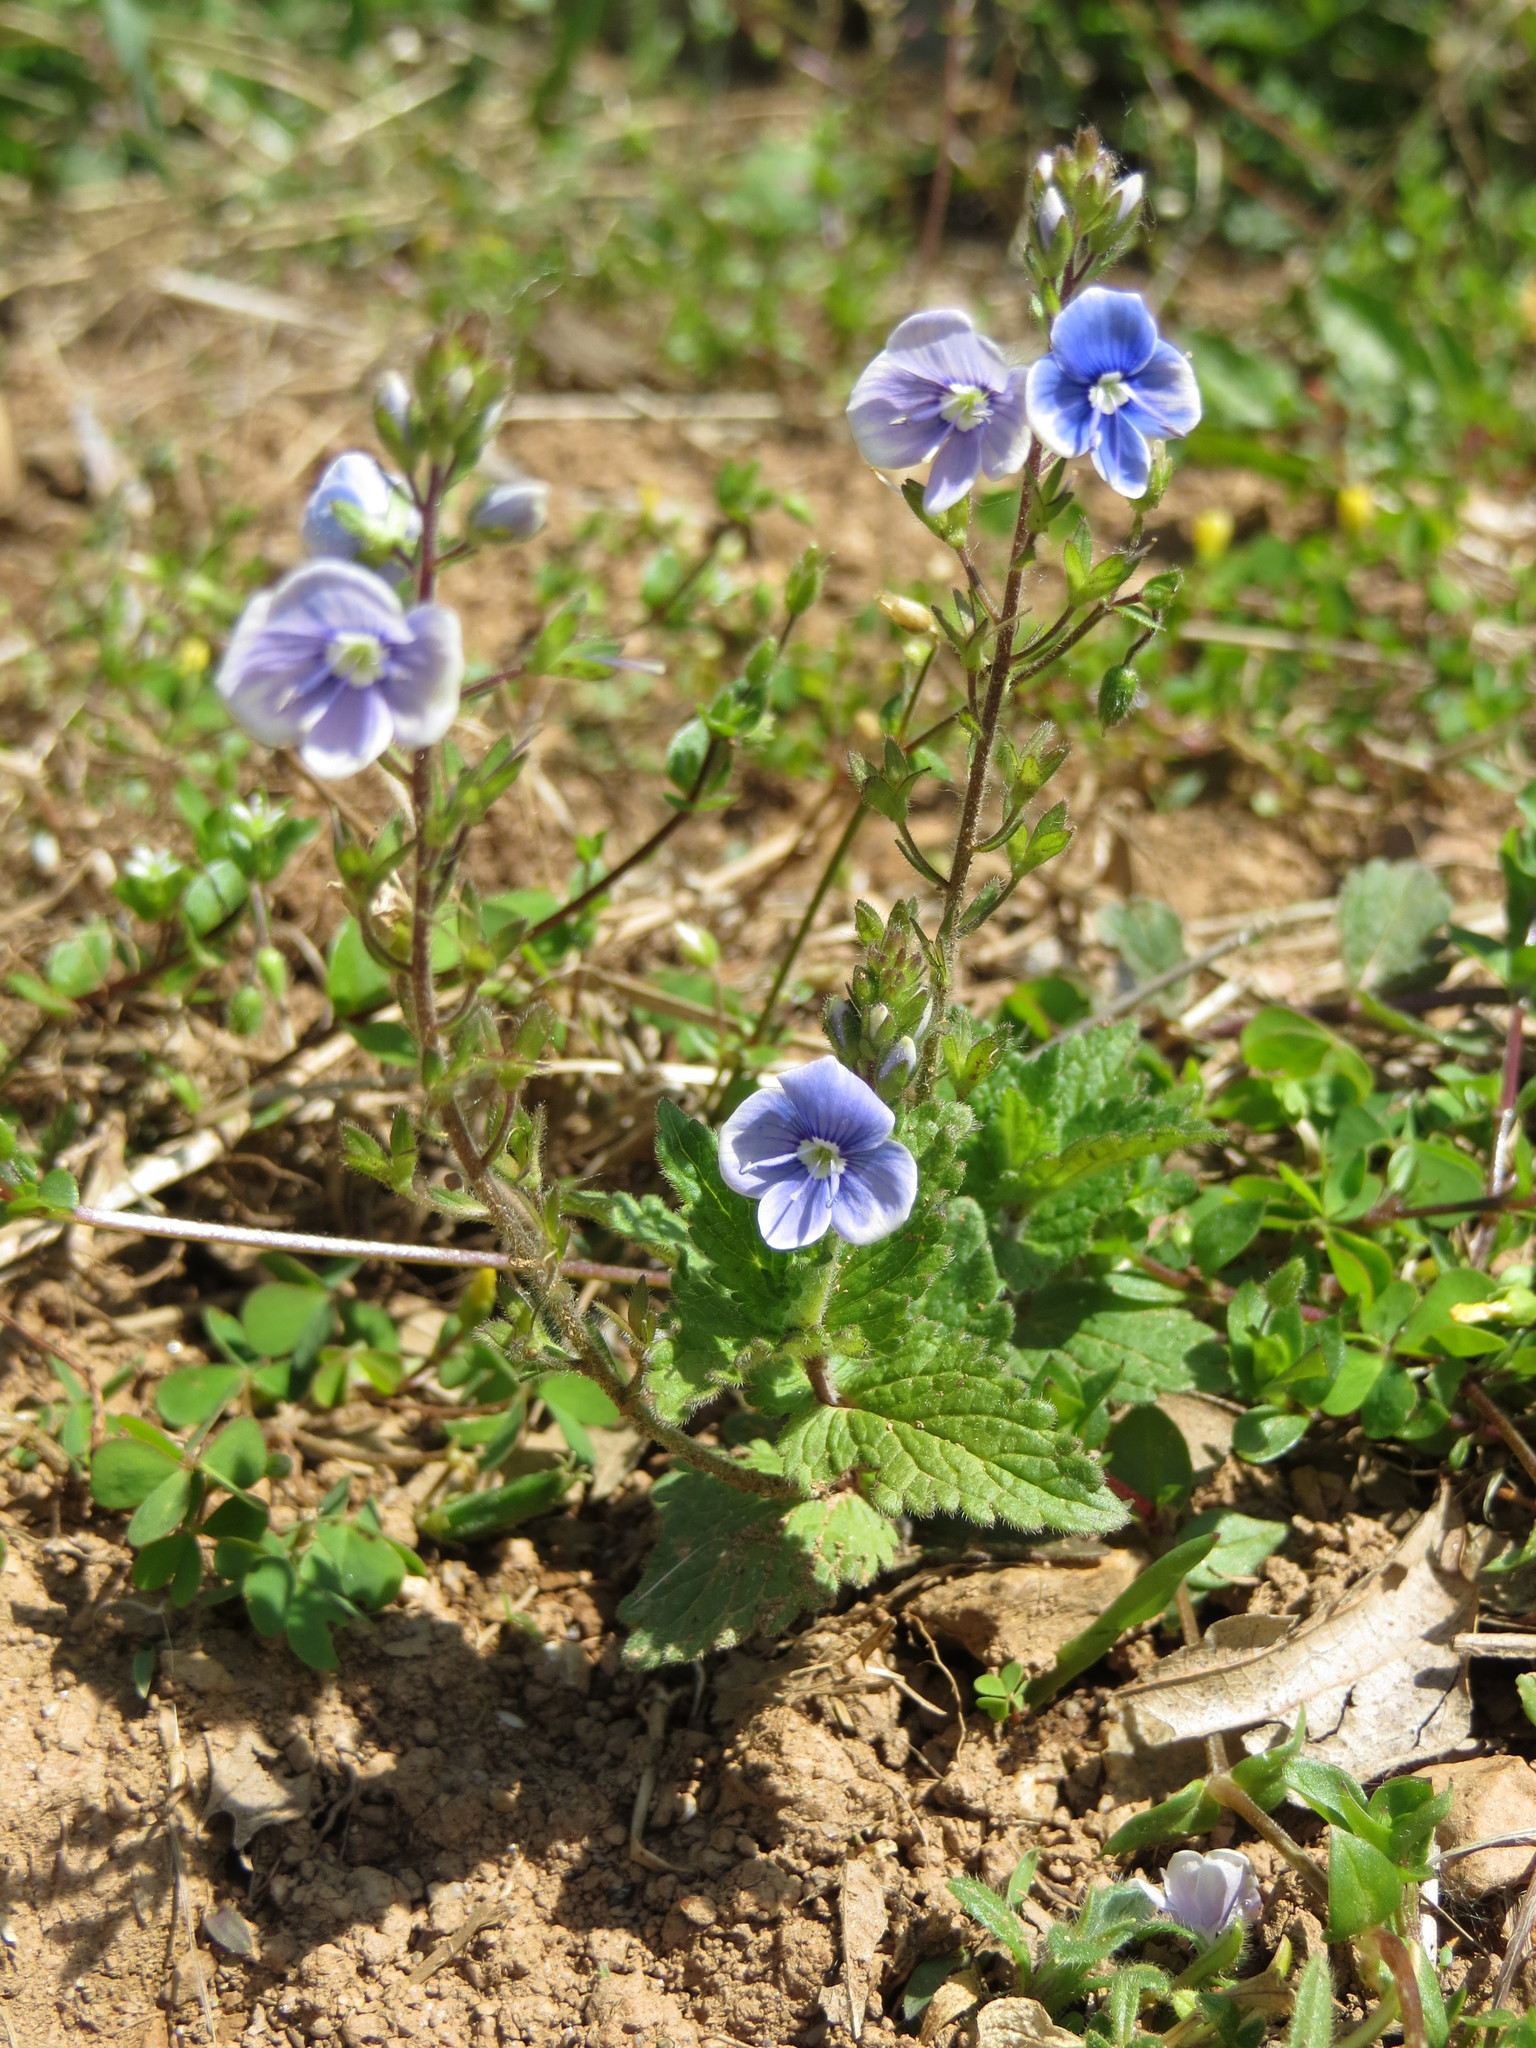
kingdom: Plantae
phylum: Tracheophyta
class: Magnoliopsida
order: Lamiales
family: Plantaginaceae
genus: Veronica
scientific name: Veronica chamaedrys
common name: Germander speedwell
